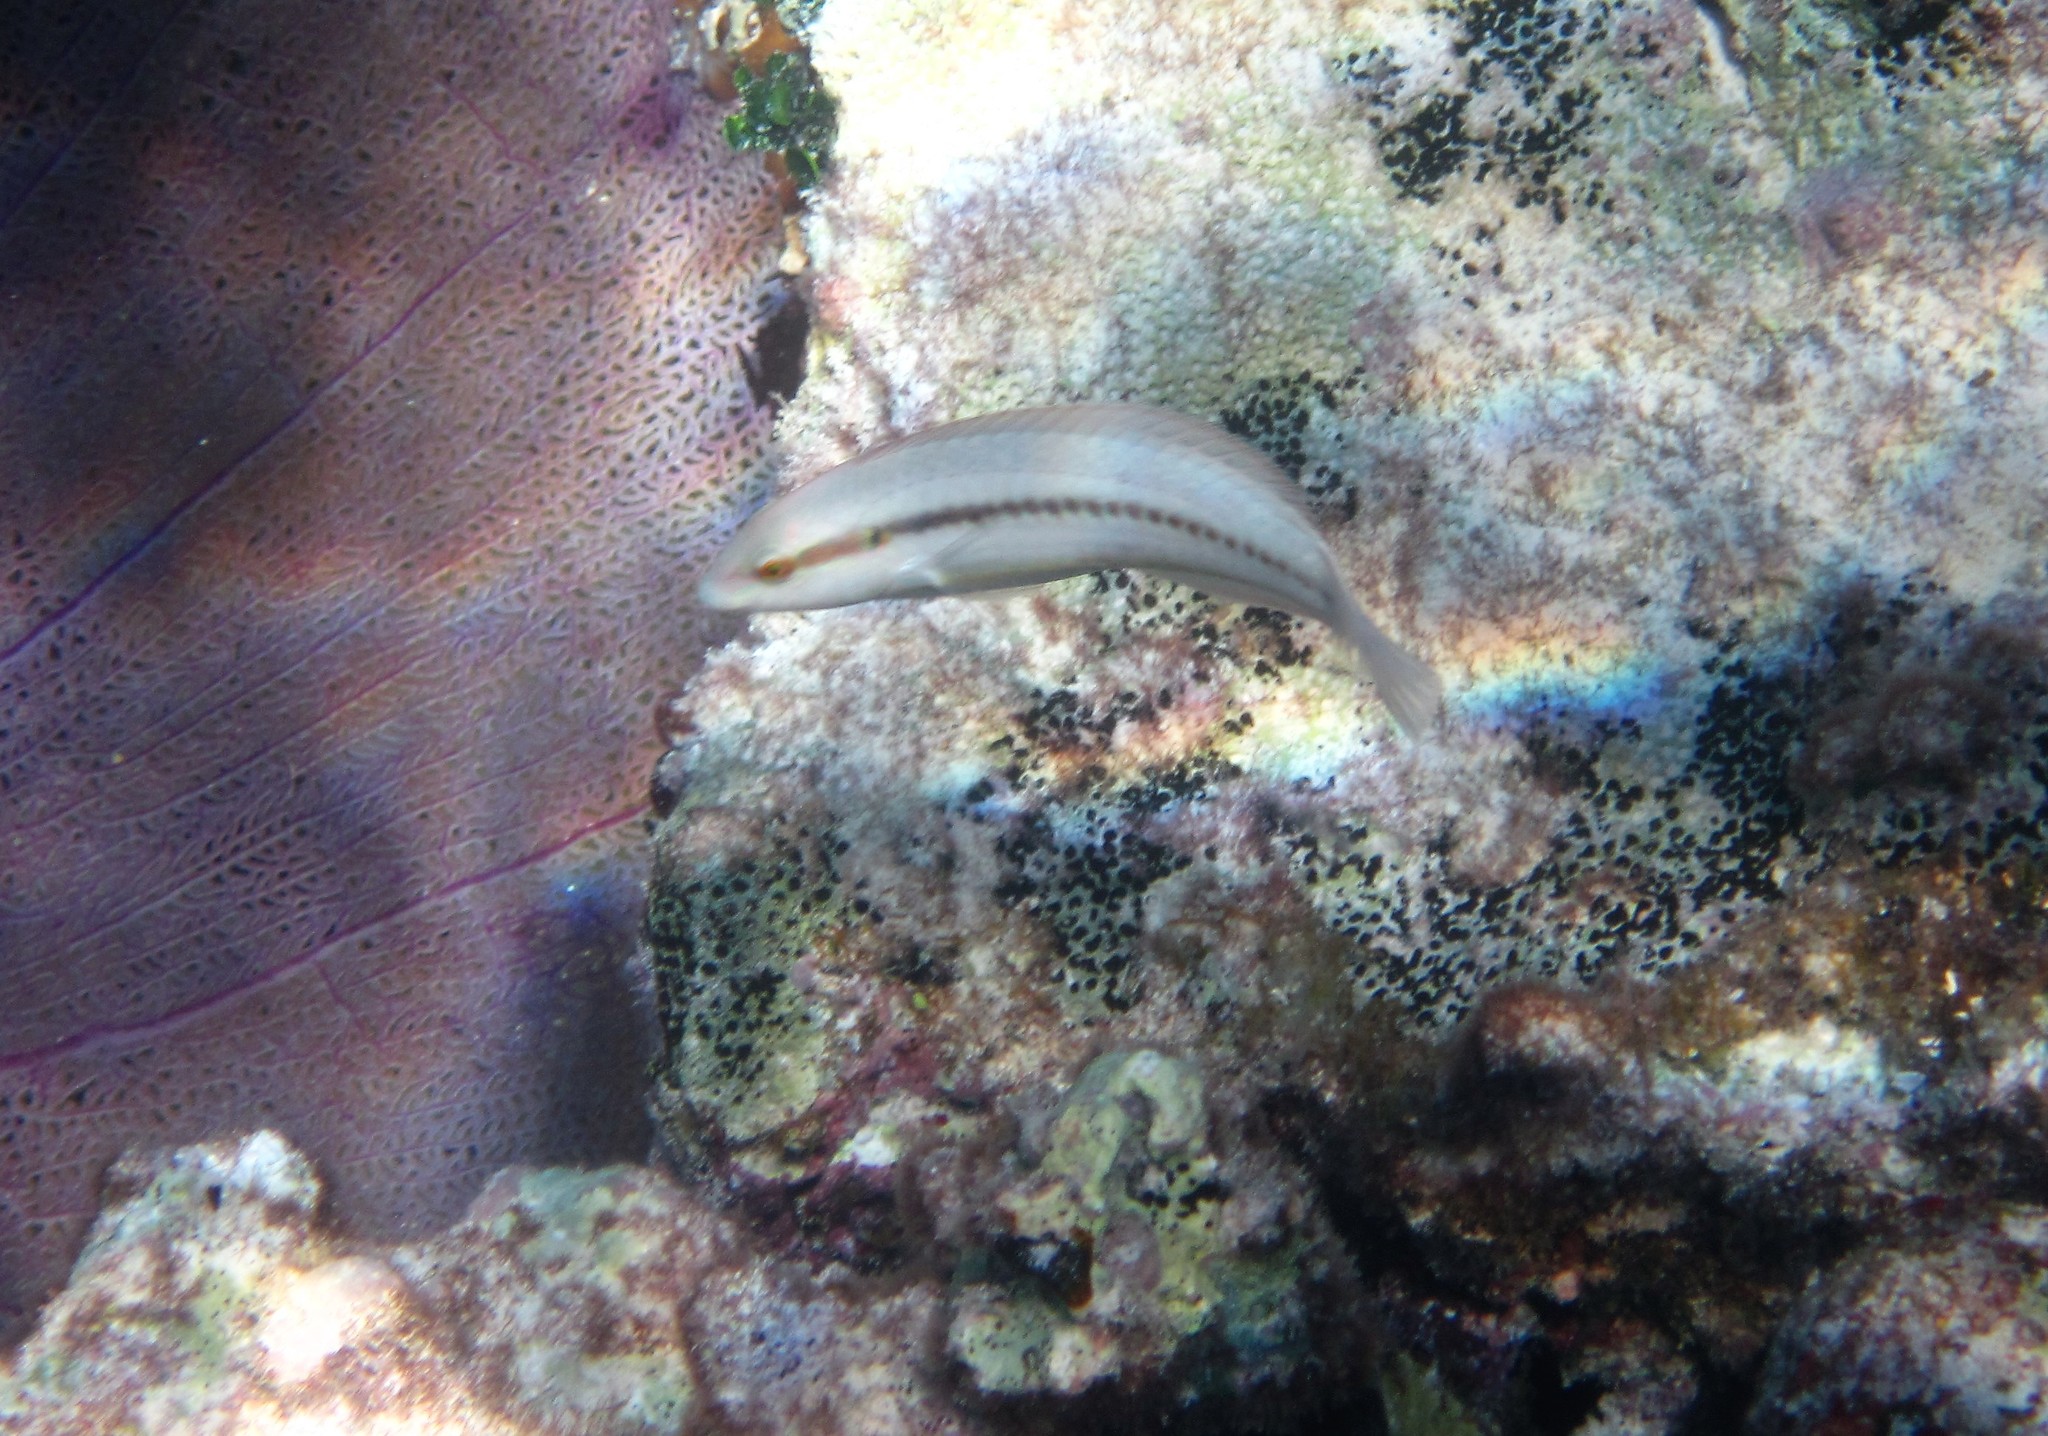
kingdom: Animalia
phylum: Chordata
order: Perciformes
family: Labridae
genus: Halichoeres
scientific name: Halichoeres bivittatus
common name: Slippery dick
